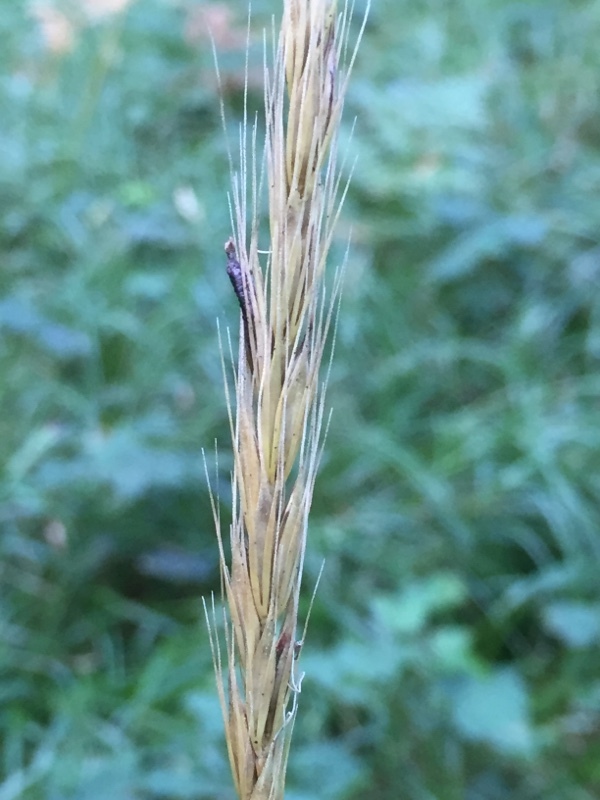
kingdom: Plantae
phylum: Tracheophyta
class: Liliopsida
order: Poales
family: Poaceae
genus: Hordelymus
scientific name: Hordelymus europaeus
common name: Wood-barley
